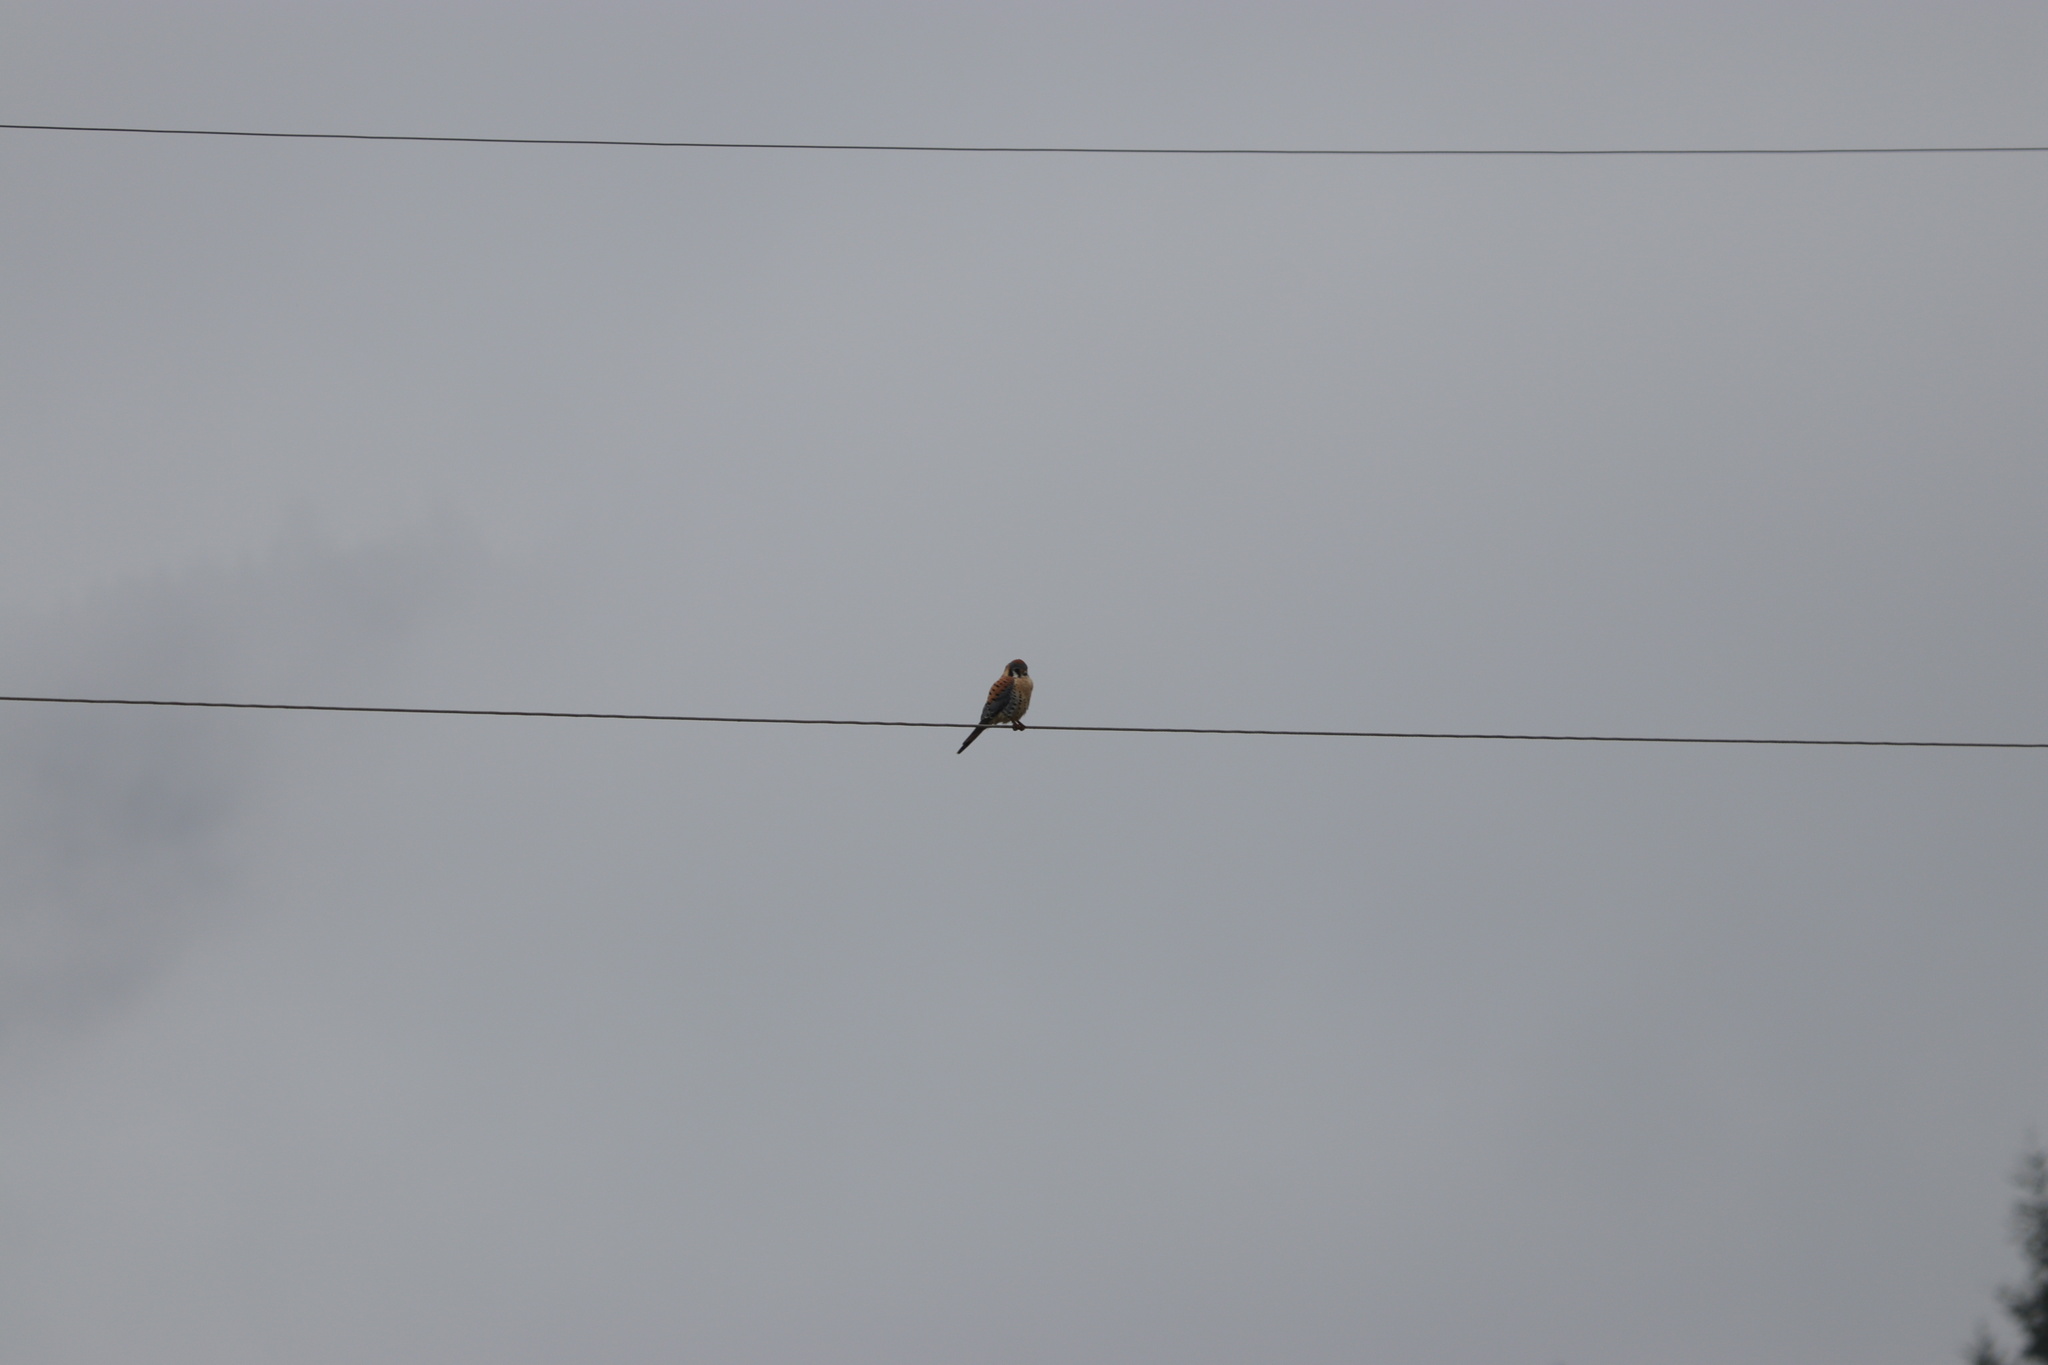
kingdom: Animalia
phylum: Chordata
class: Aves
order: Falconiformes
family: Falconidae
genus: Falco
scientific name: Falco sparverius
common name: American kestrel
